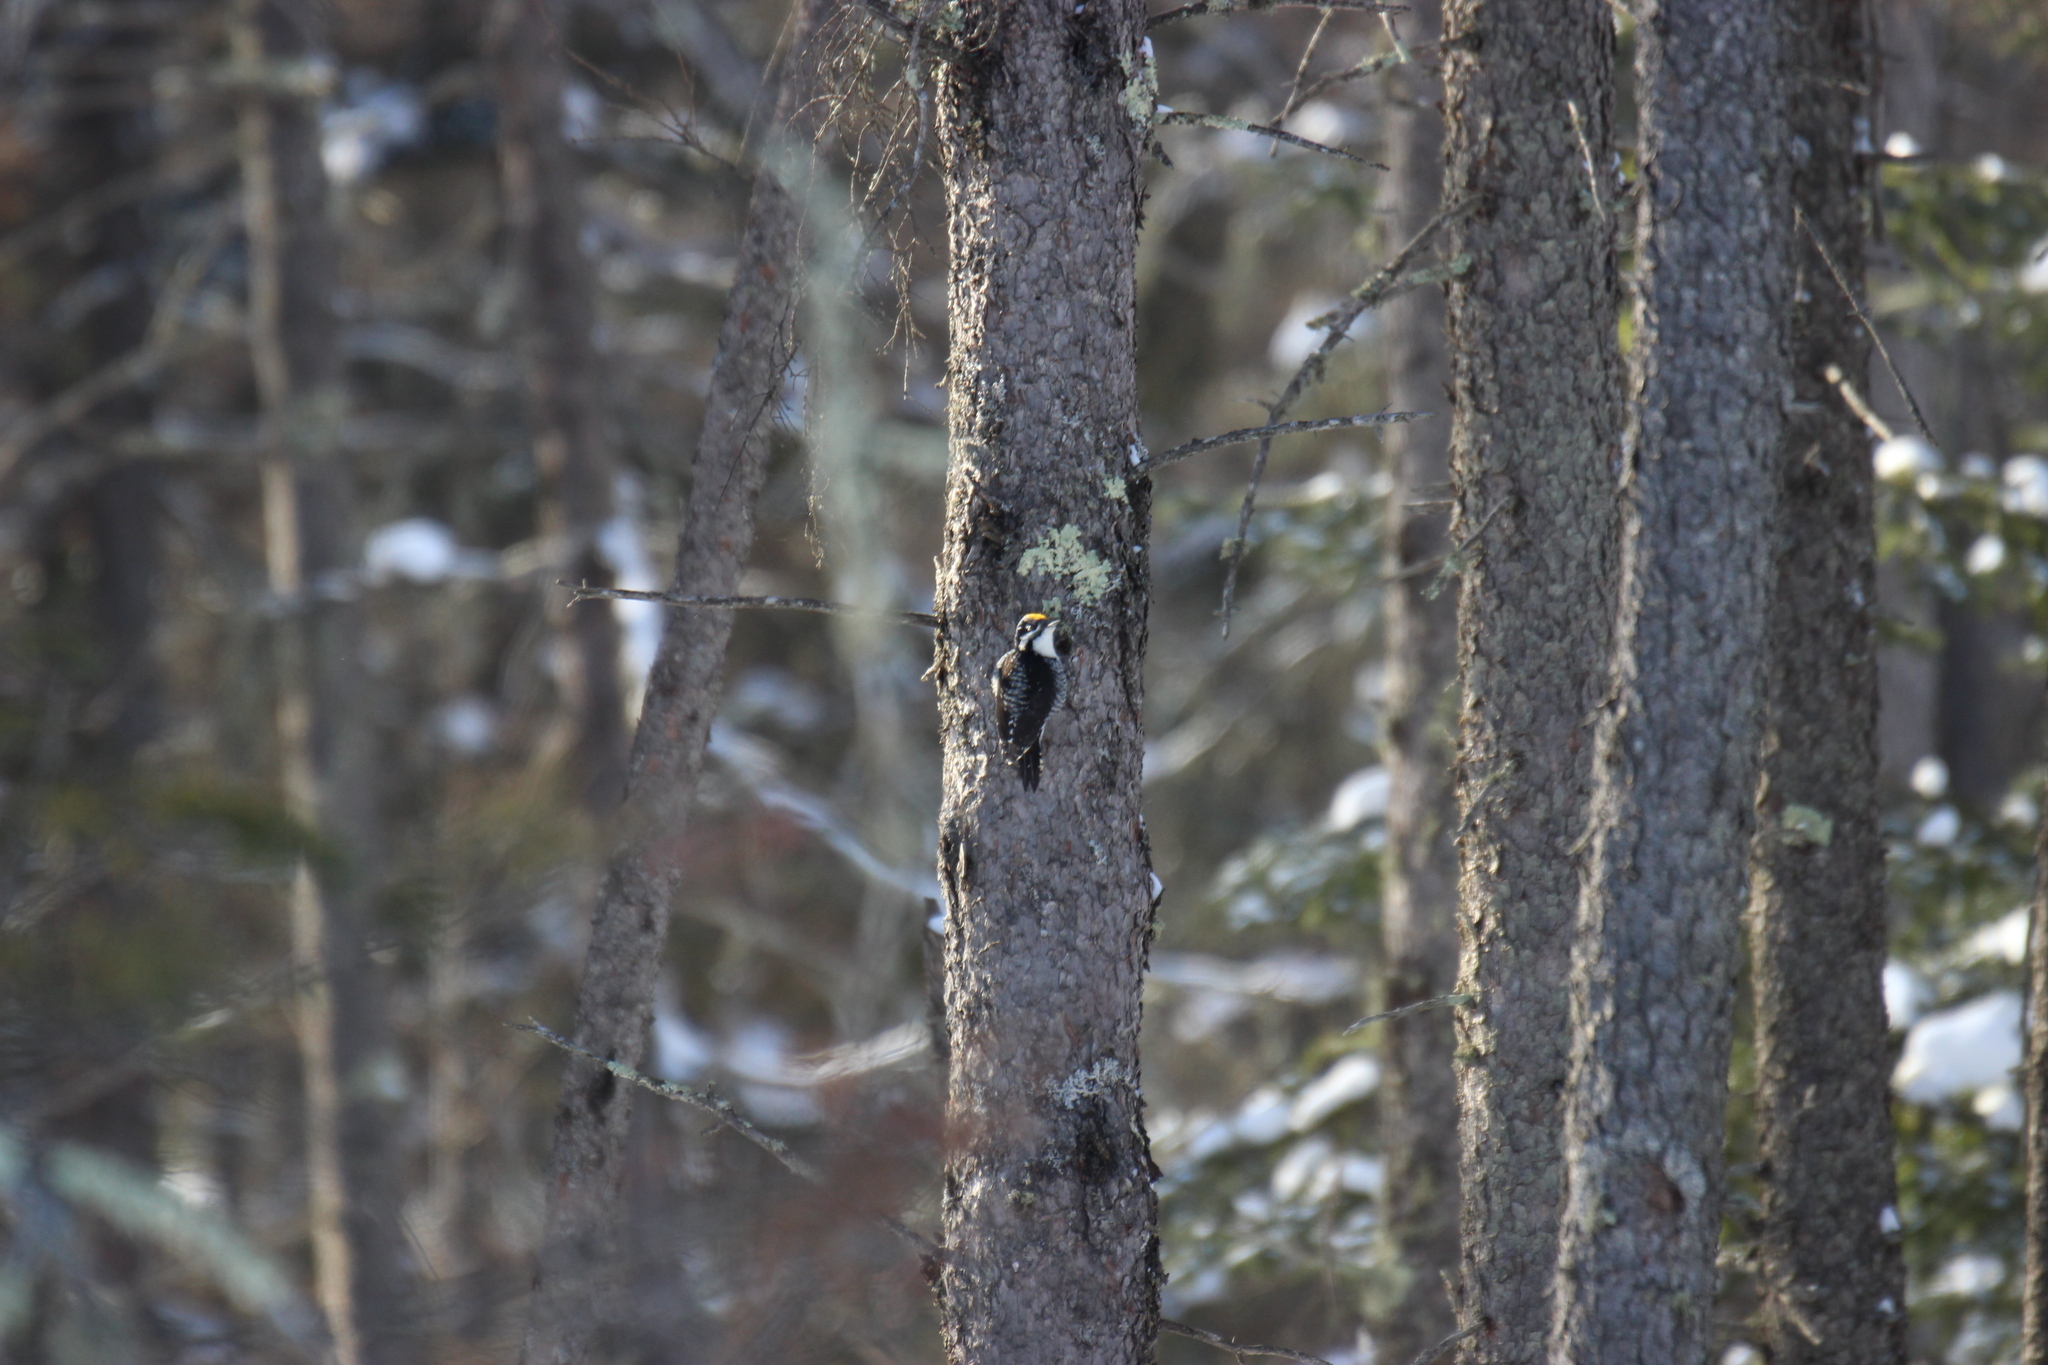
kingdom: Animalia
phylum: Chordata
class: Aves
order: Piciformes
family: Picidae
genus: Picoides
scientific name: Picoides dorsalis
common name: American three-toed woodpecker
